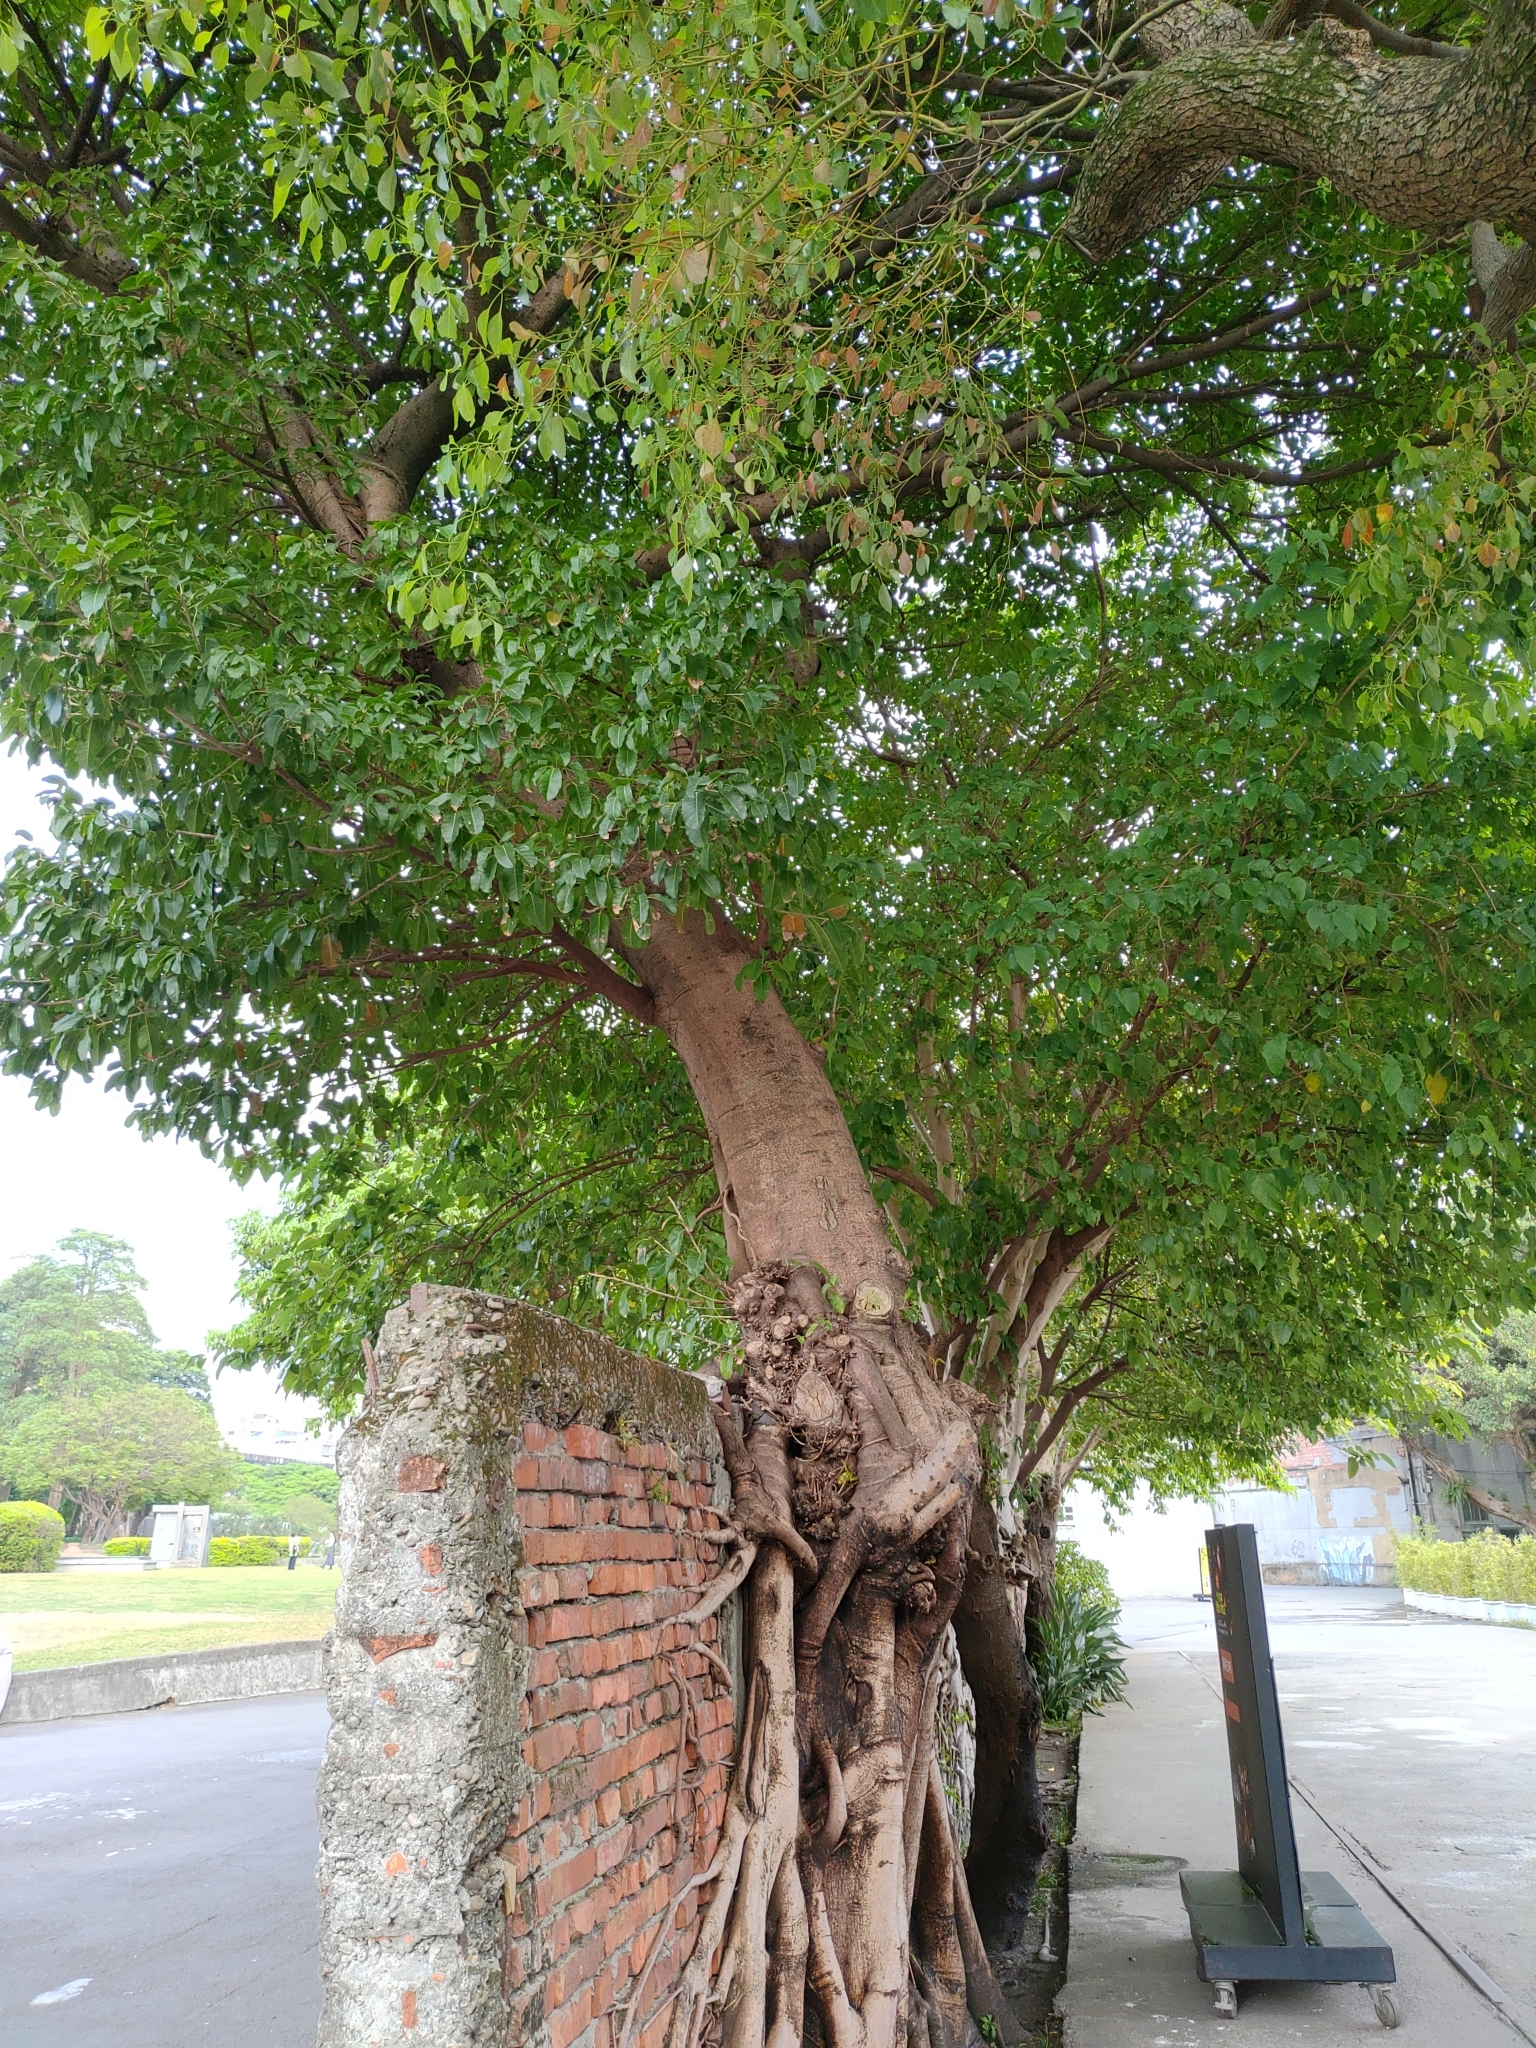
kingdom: Plantae
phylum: Tracheophyta
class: Magnoliopsida
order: Rosales
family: Moraceae
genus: Ficus
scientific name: Ficus subpisocarpa
